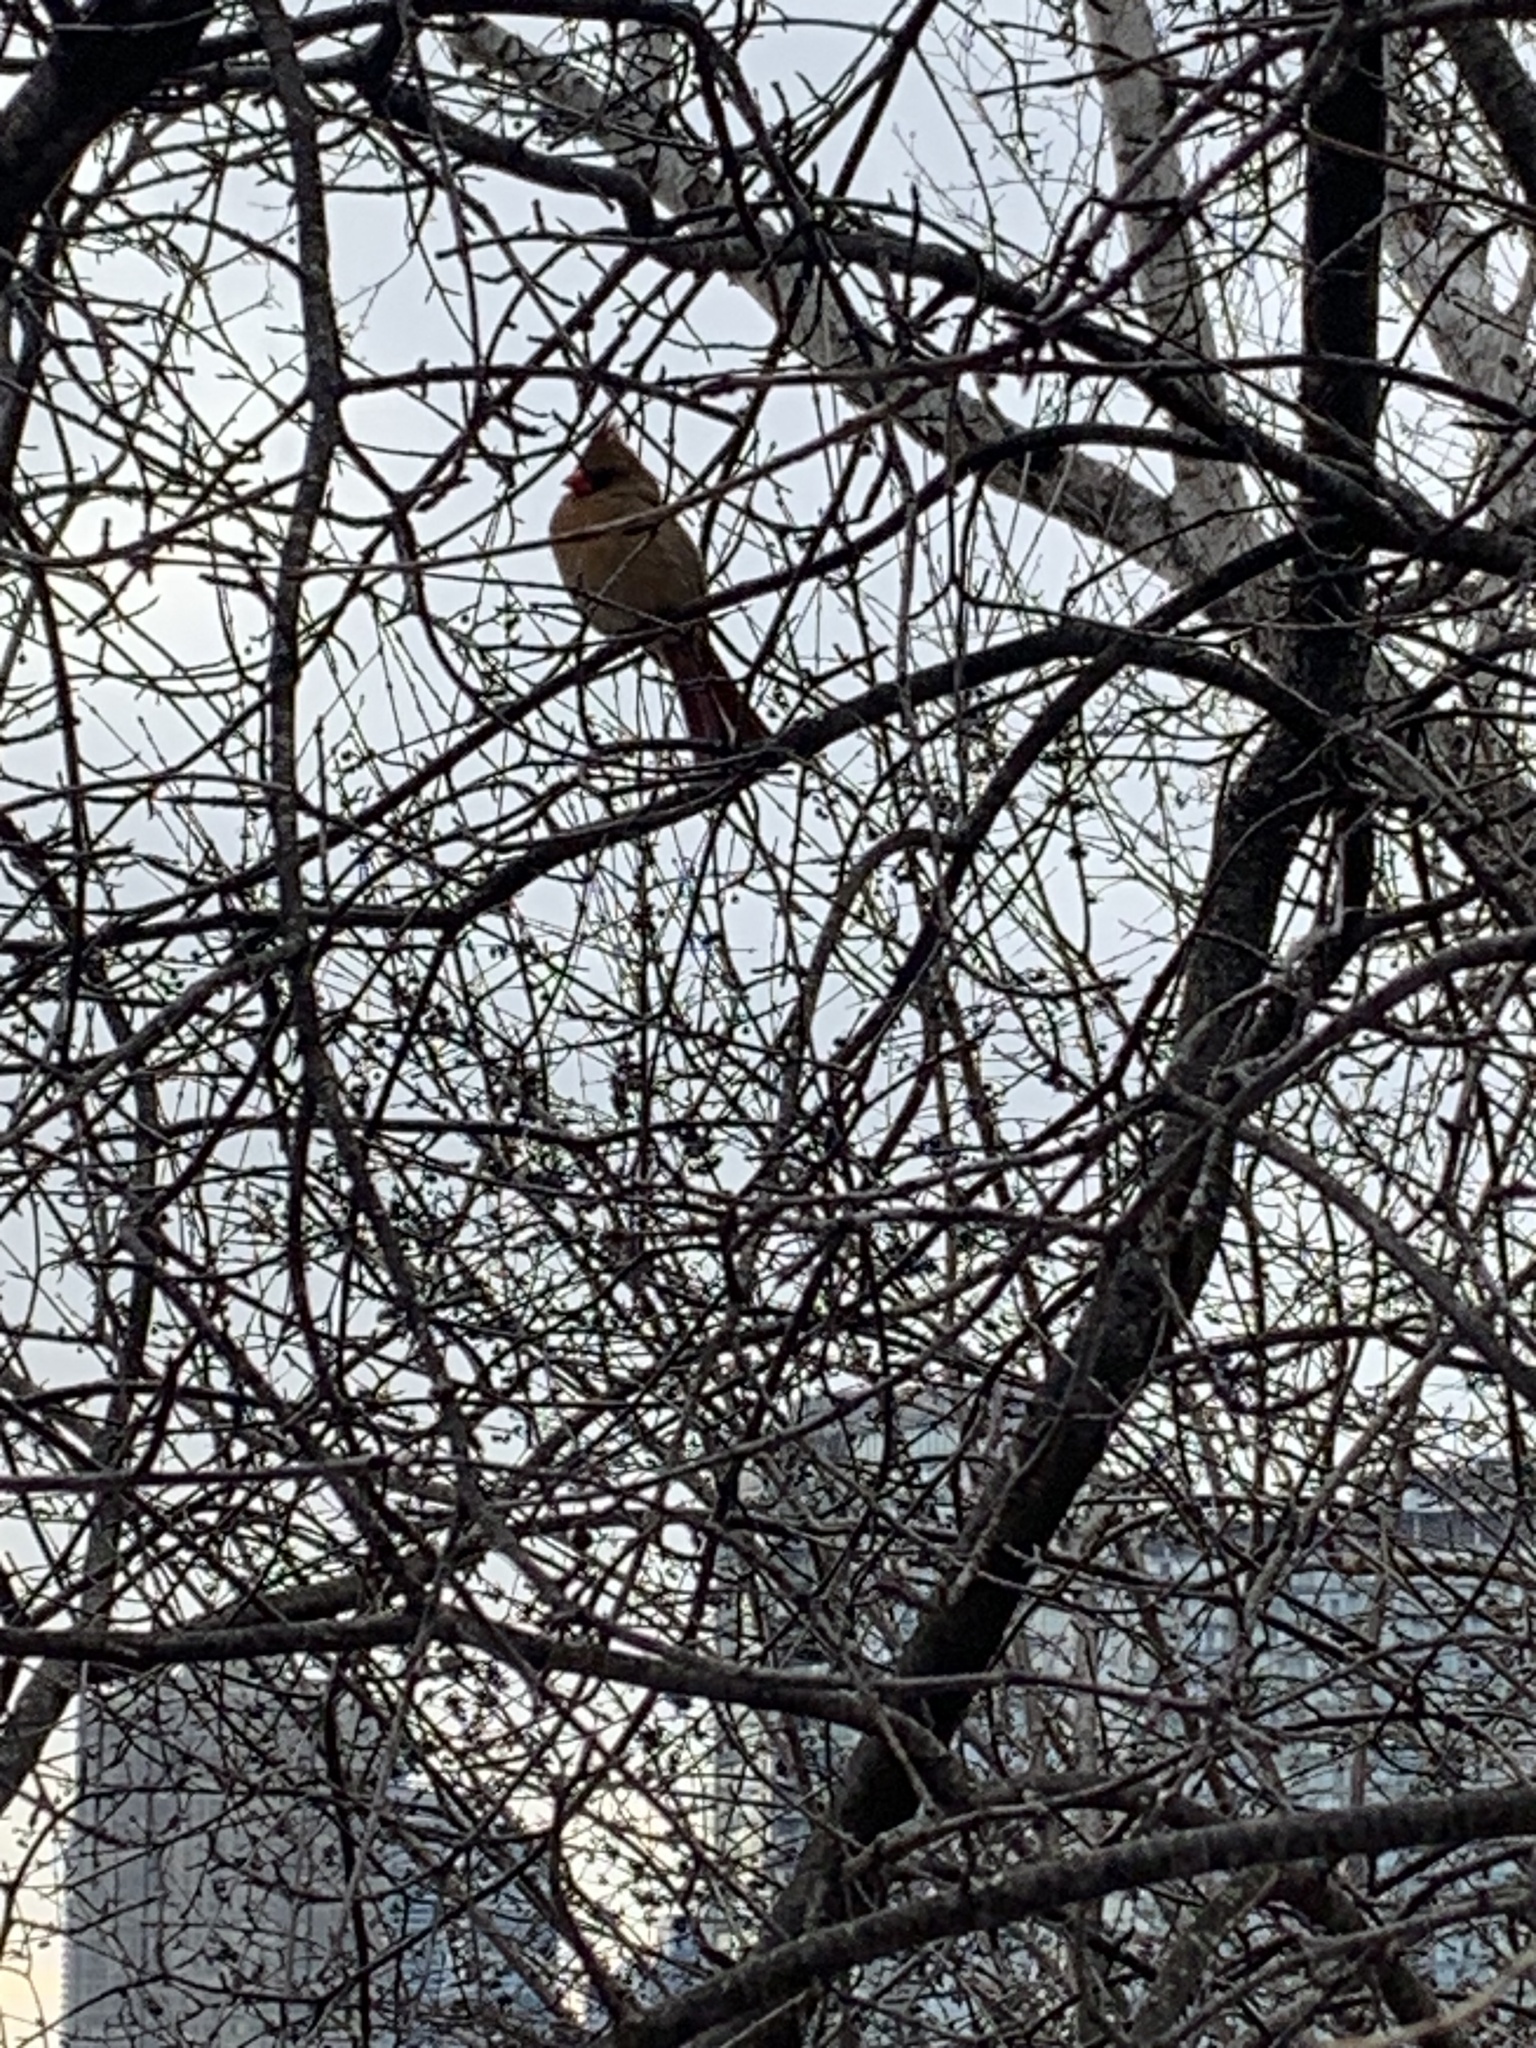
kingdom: Animalia
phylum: Chordata
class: Aves
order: Passeriformes
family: Cardinalidae
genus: Cardinalis
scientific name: Cardinalis cardinalis
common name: Northern cardinal
